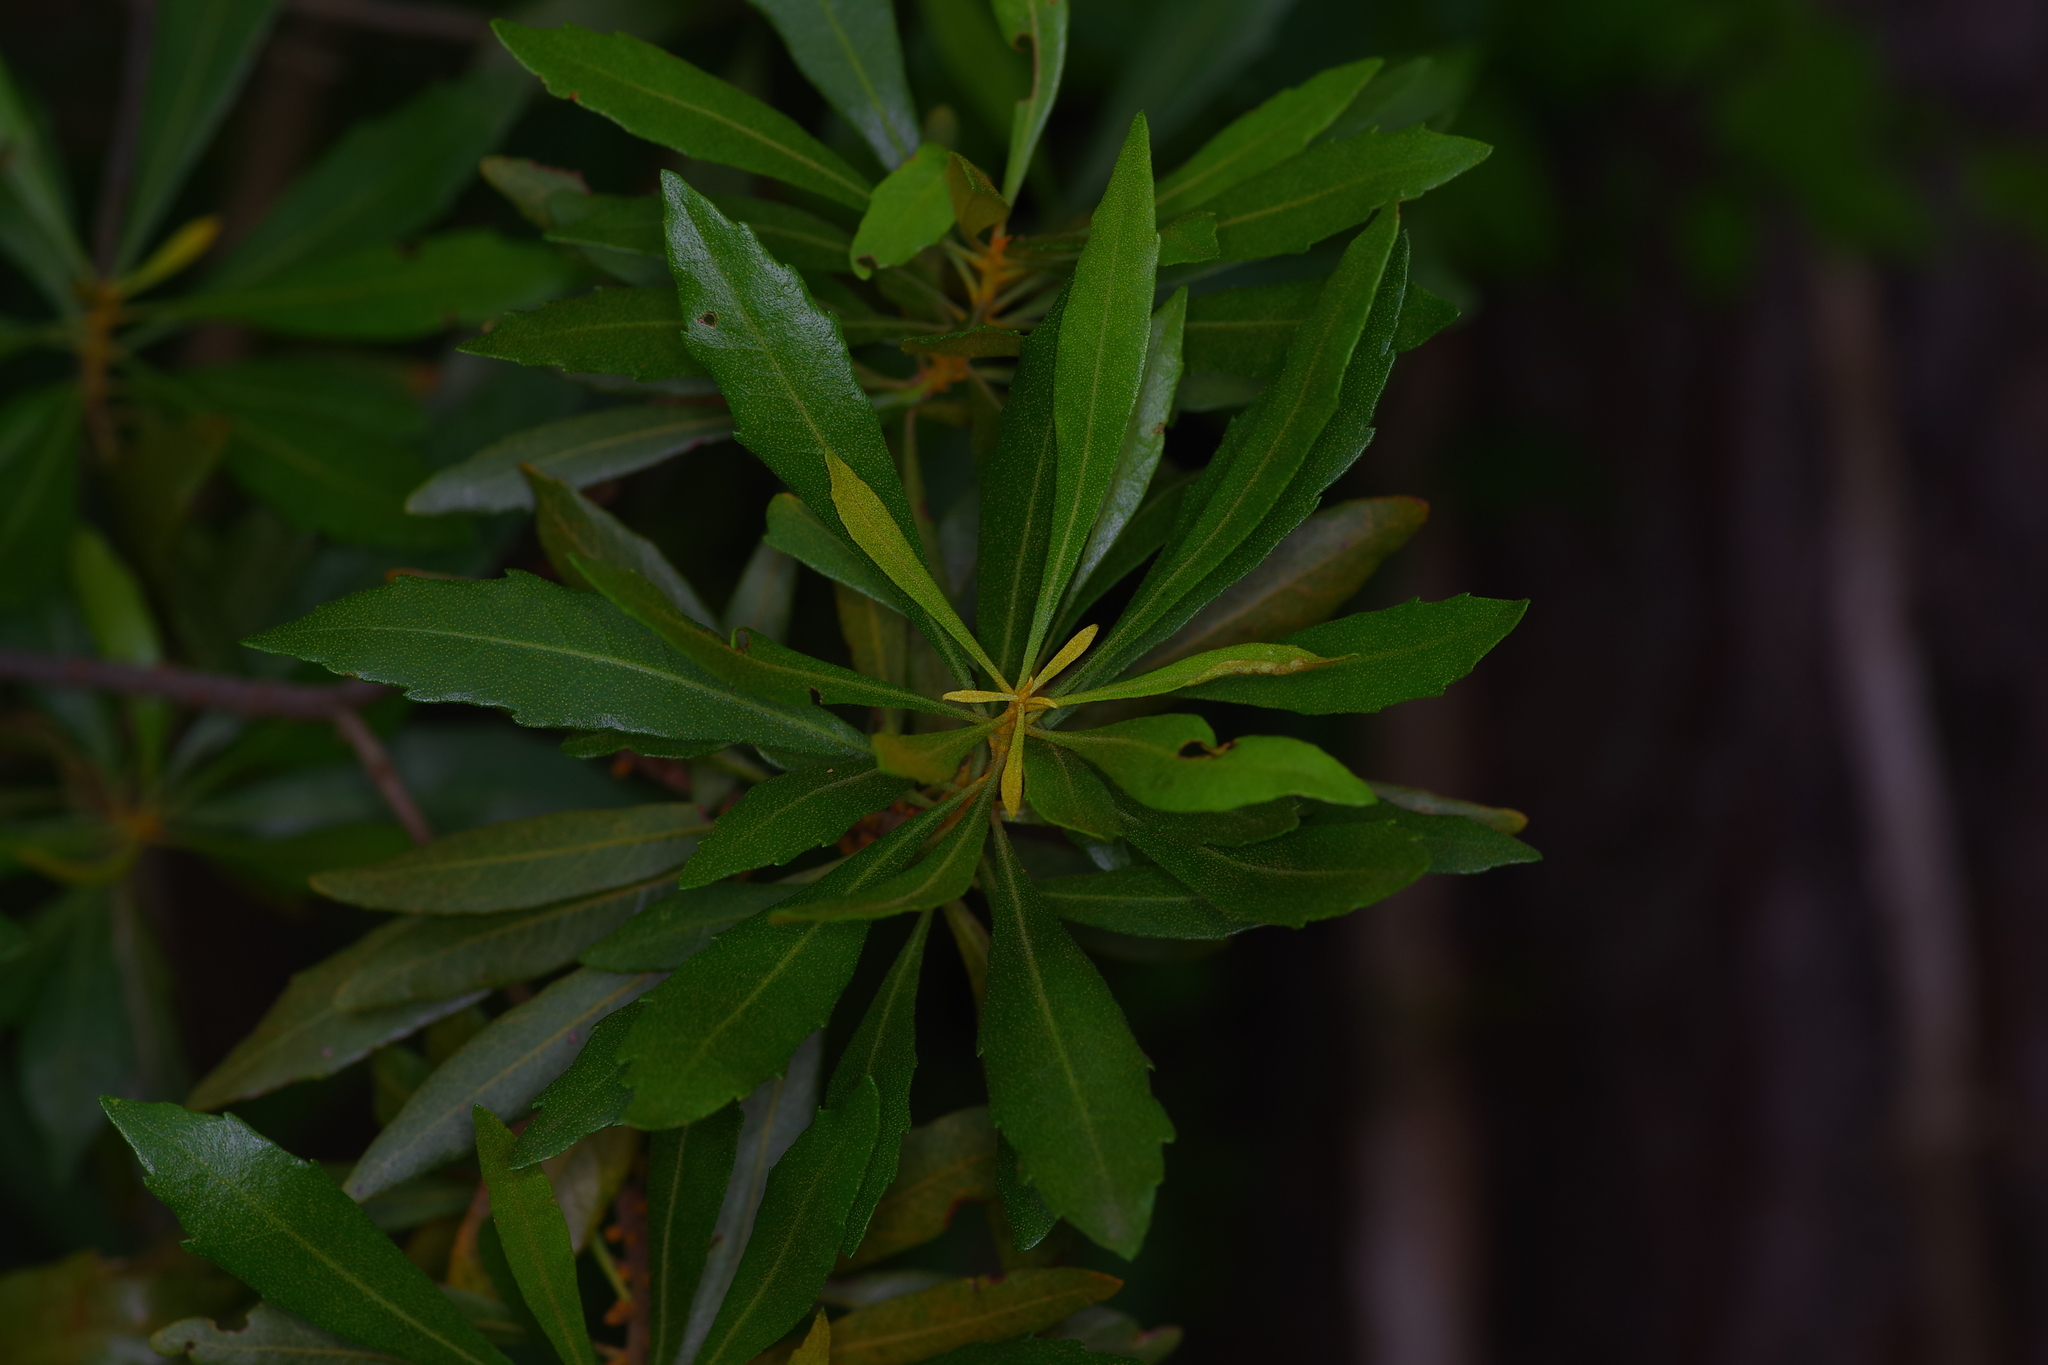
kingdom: Plantae
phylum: Tracheophyta
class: Magnoliopsida
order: Fagales
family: Myricaceae
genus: Morella
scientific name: Morella cerifera
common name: Wax myrtle
